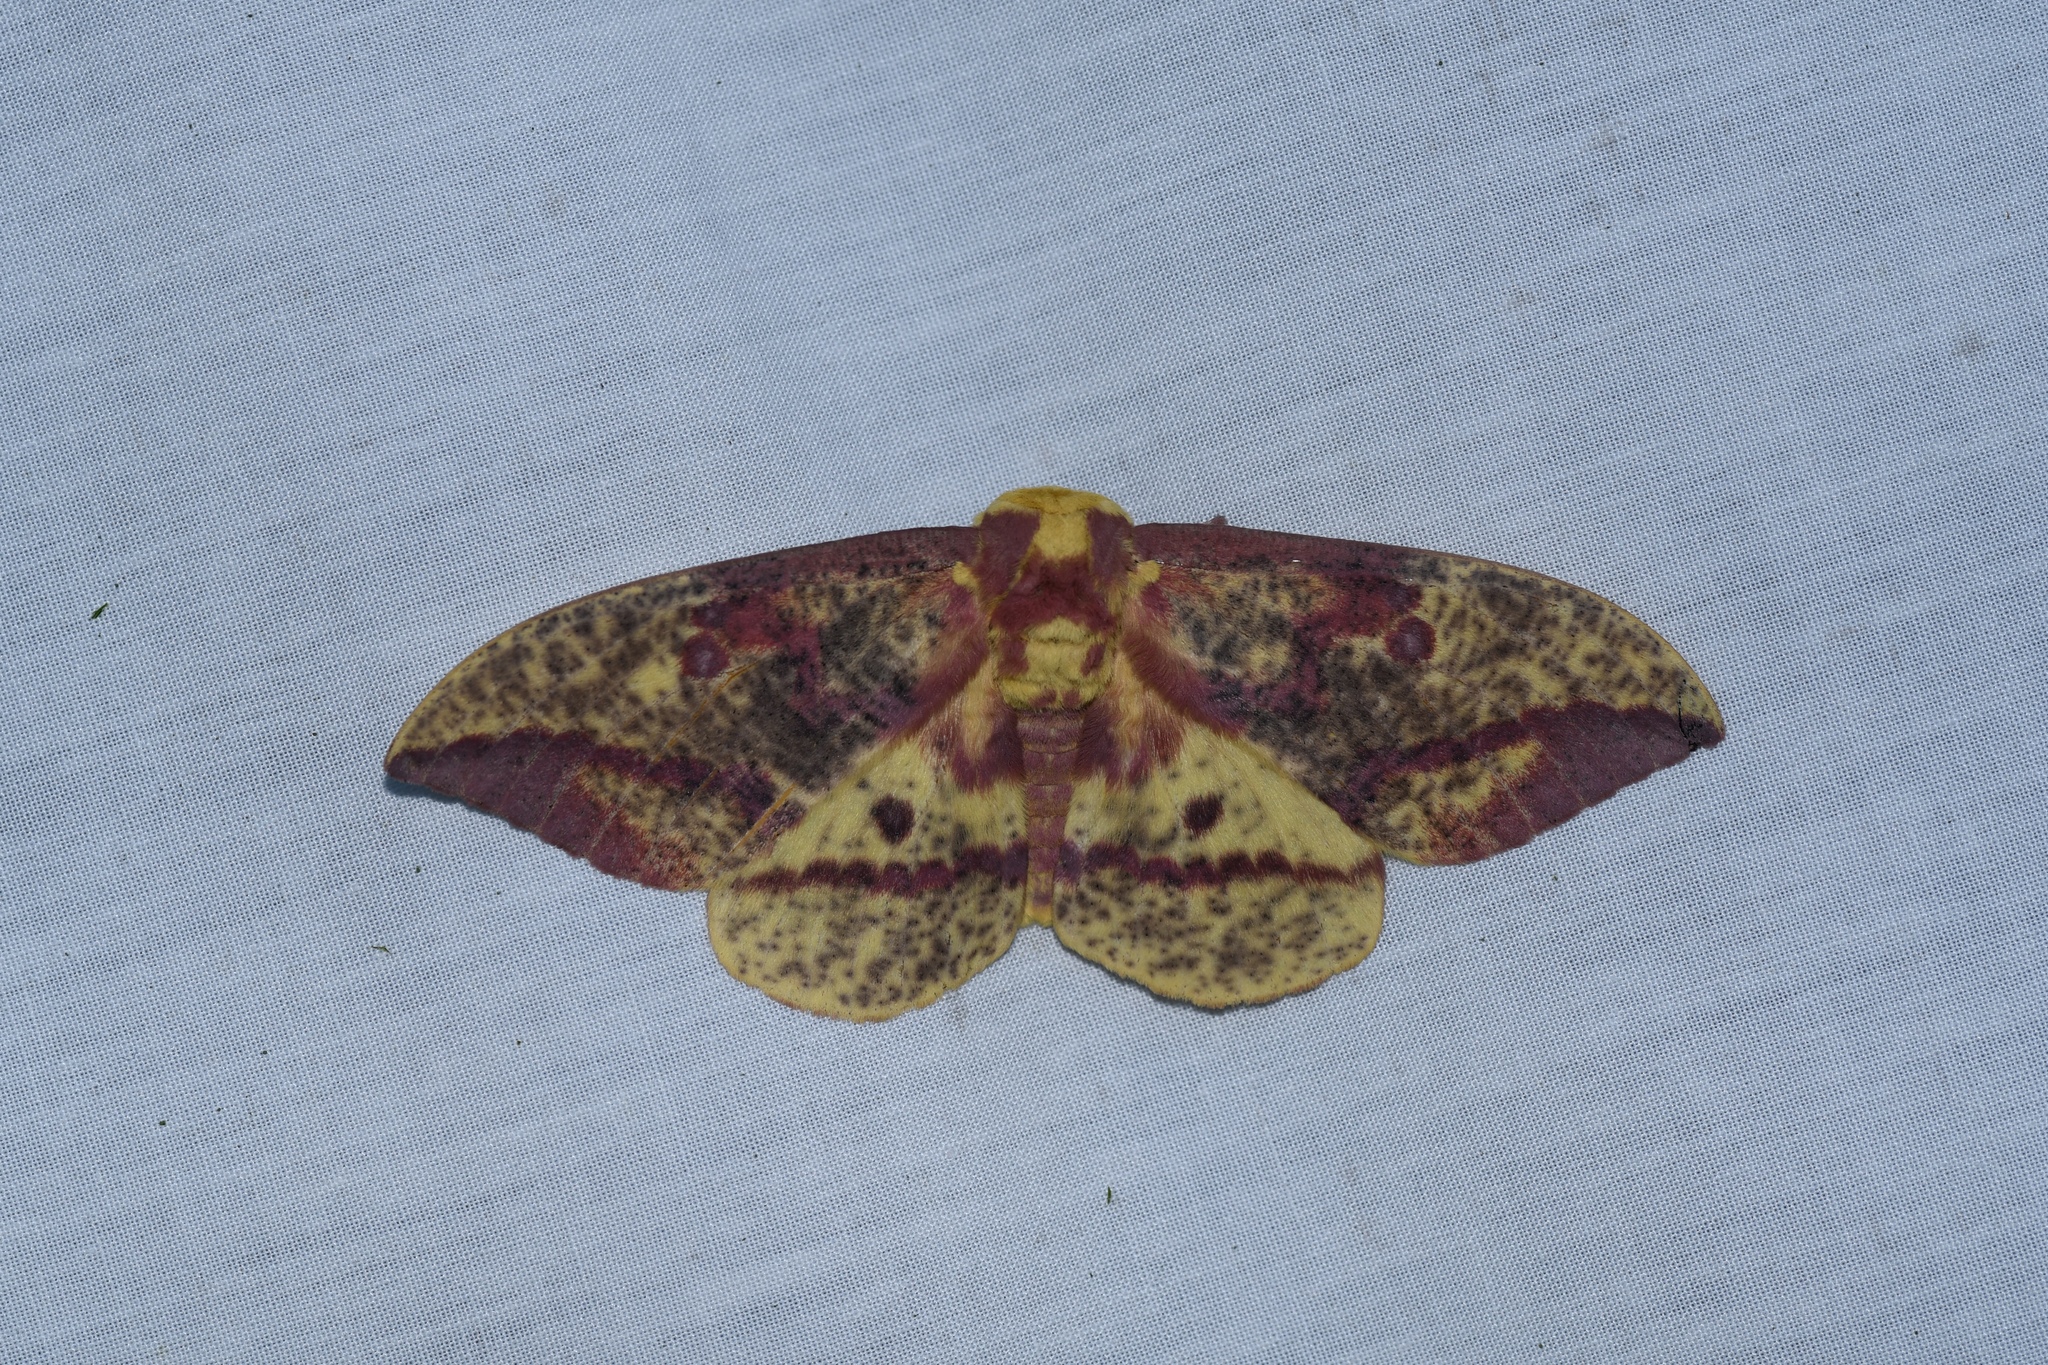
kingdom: Animalia
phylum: Arthropoda
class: Insecta
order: Lepidoptera
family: Saturniidae
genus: Eacles
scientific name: Eacles
